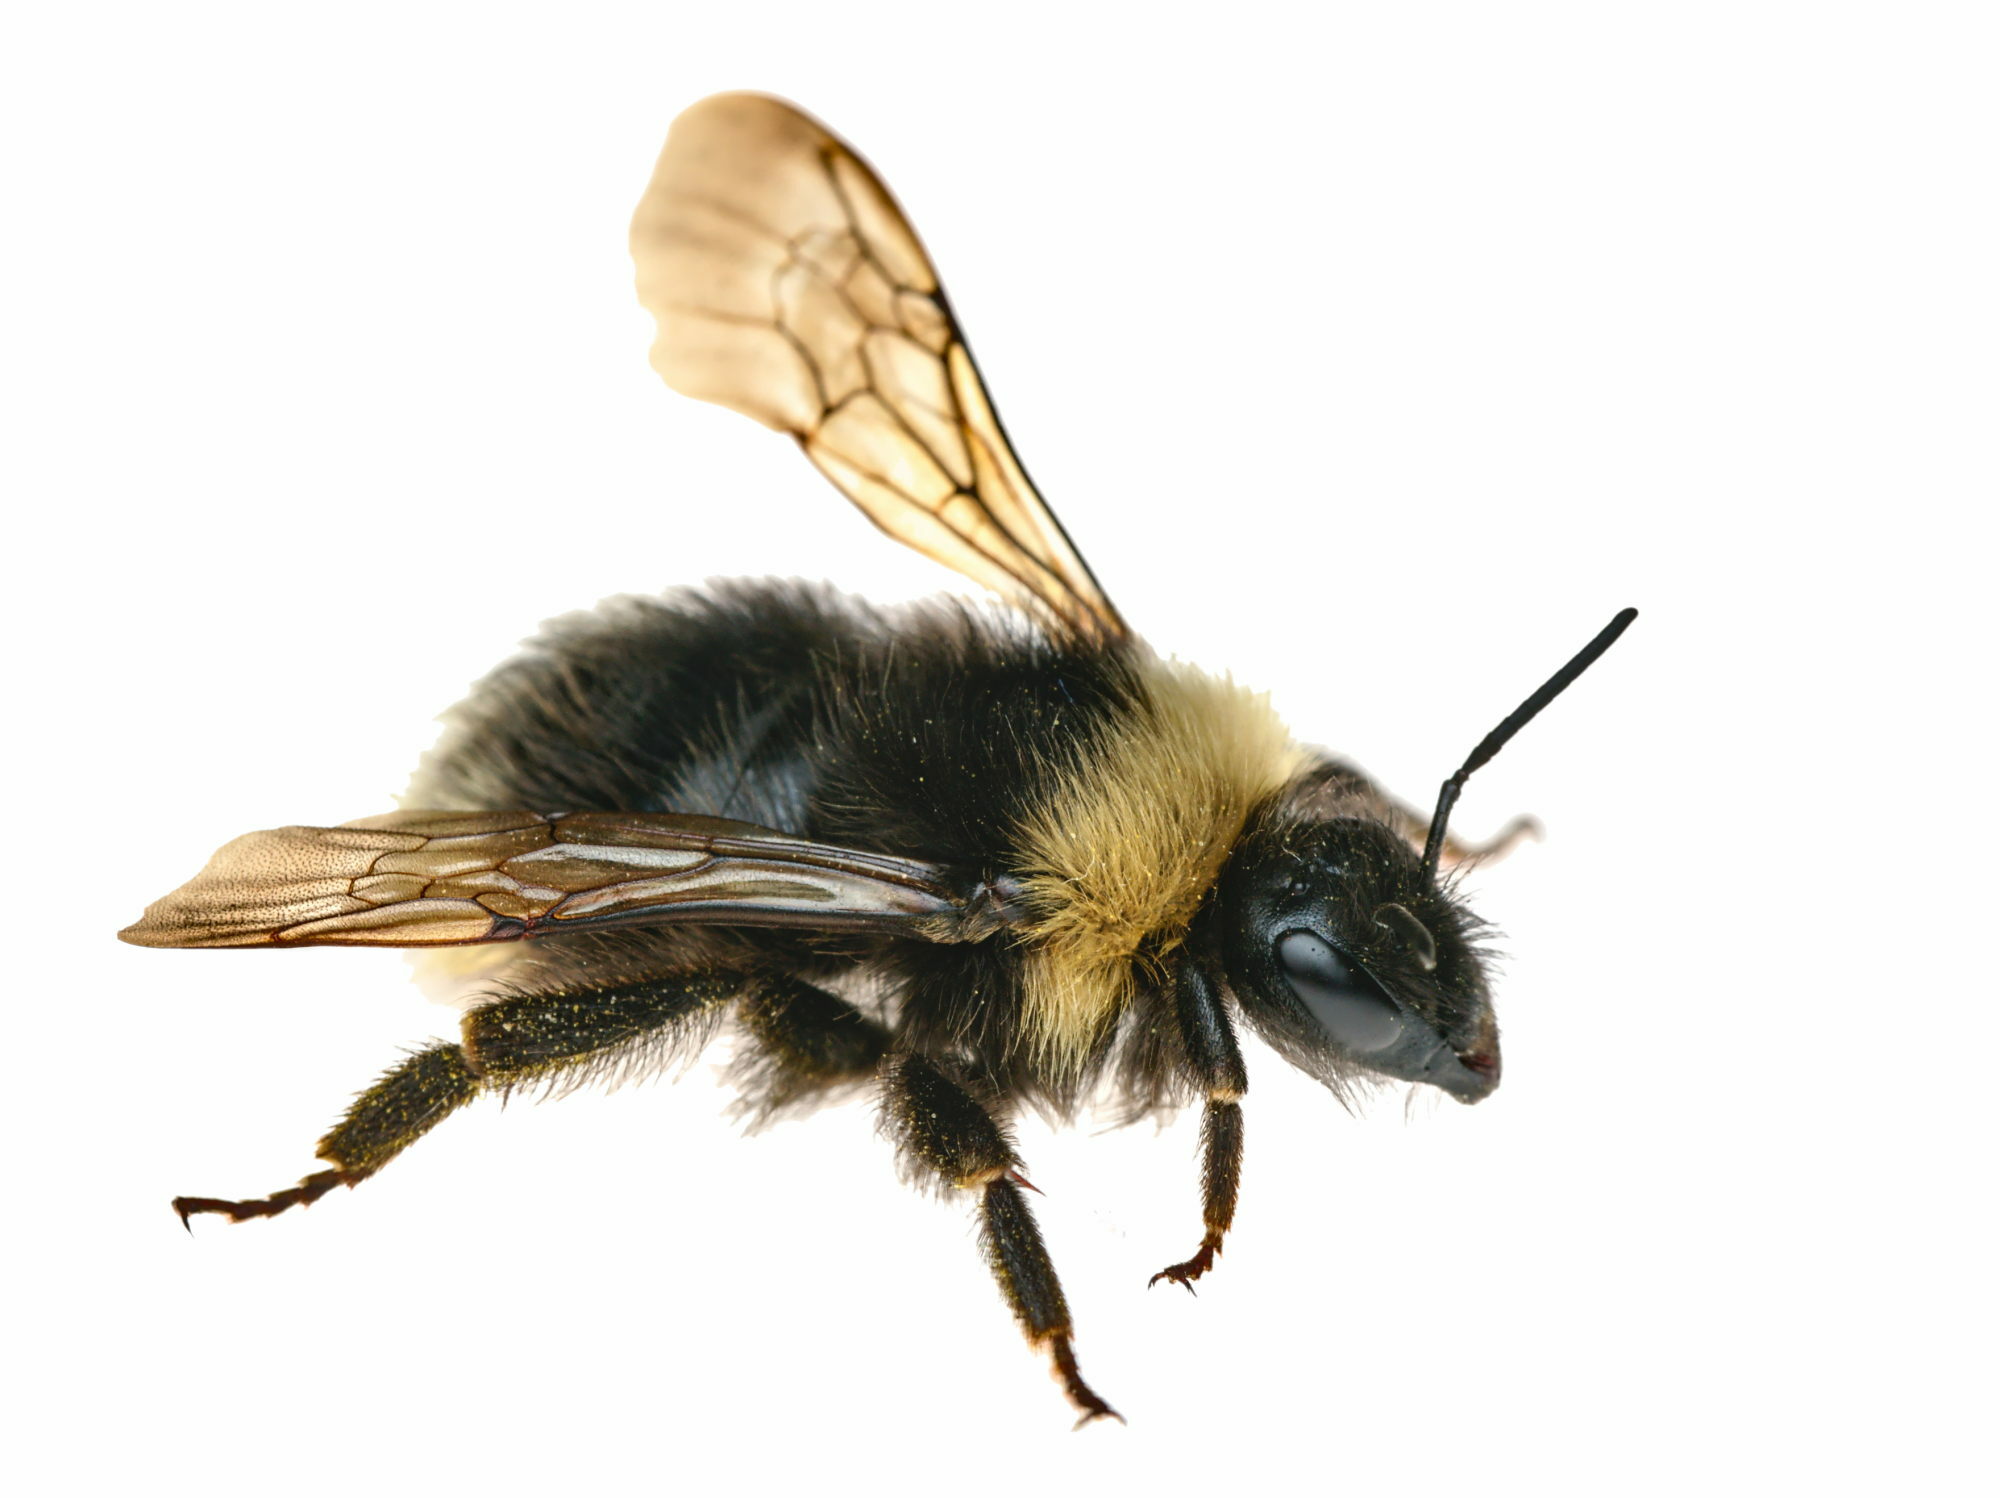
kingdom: Animalia
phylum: Arthropoda
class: Insecta
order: Hymenoptera
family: Apidae
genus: Bombus
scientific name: Bombus sylvestris
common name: Forest cuckoo bee
